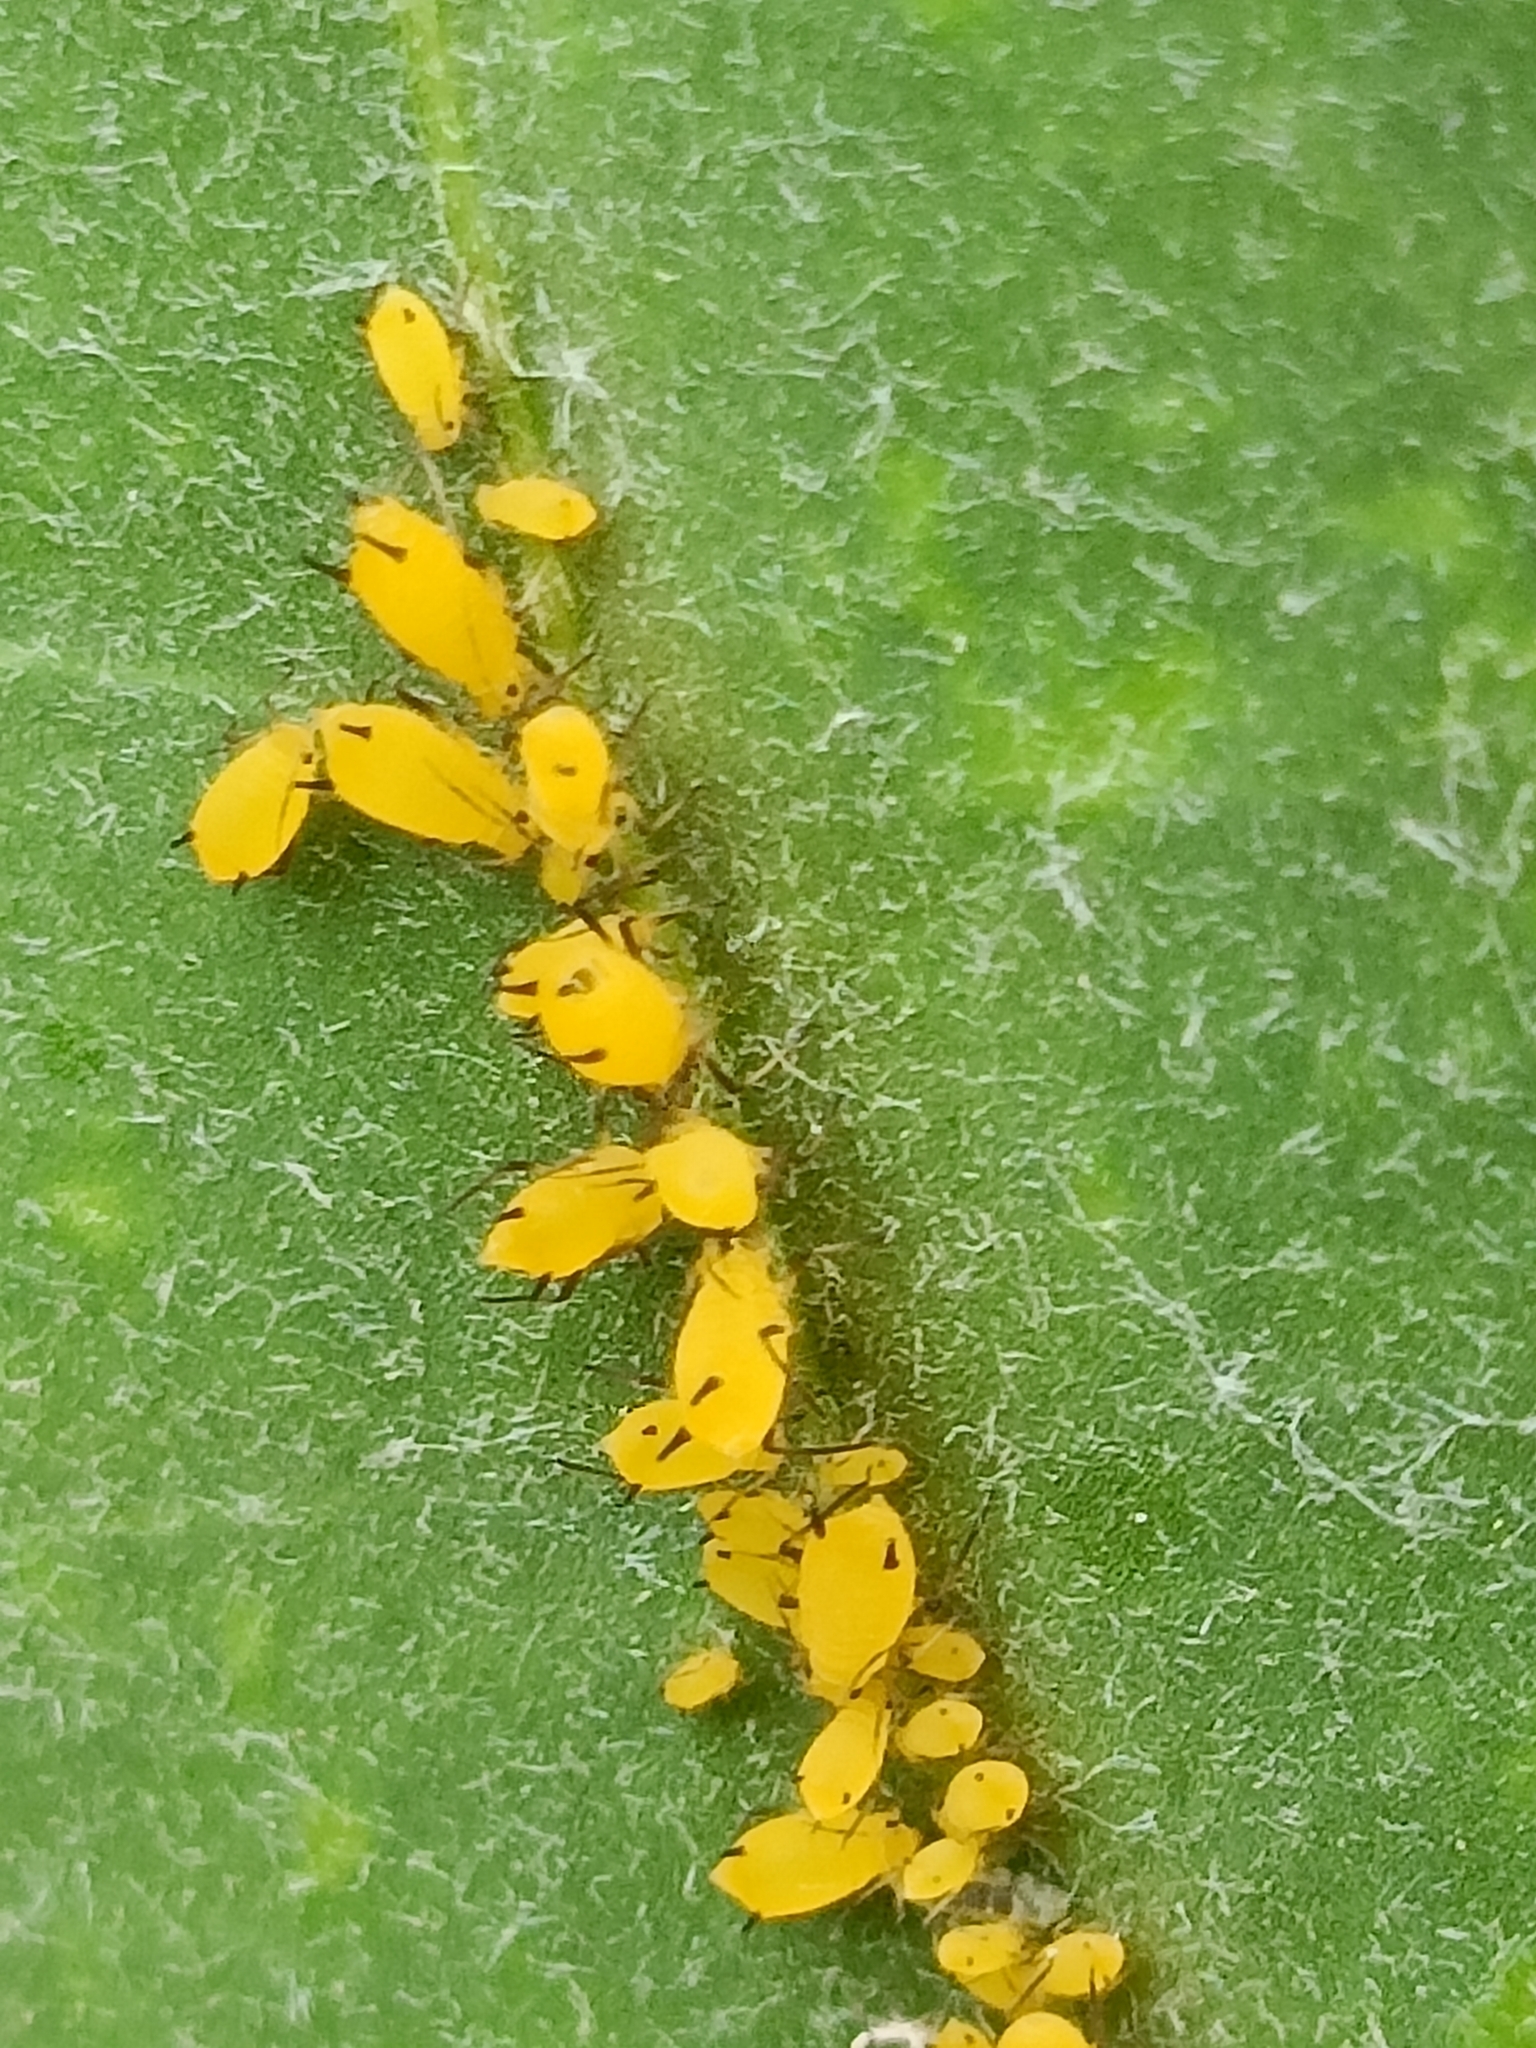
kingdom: Animalia
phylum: Arthropoda
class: Insecta
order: Hemiptera
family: Aphididae
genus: Aphis
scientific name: Aphis nerii
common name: Oleander aphid
